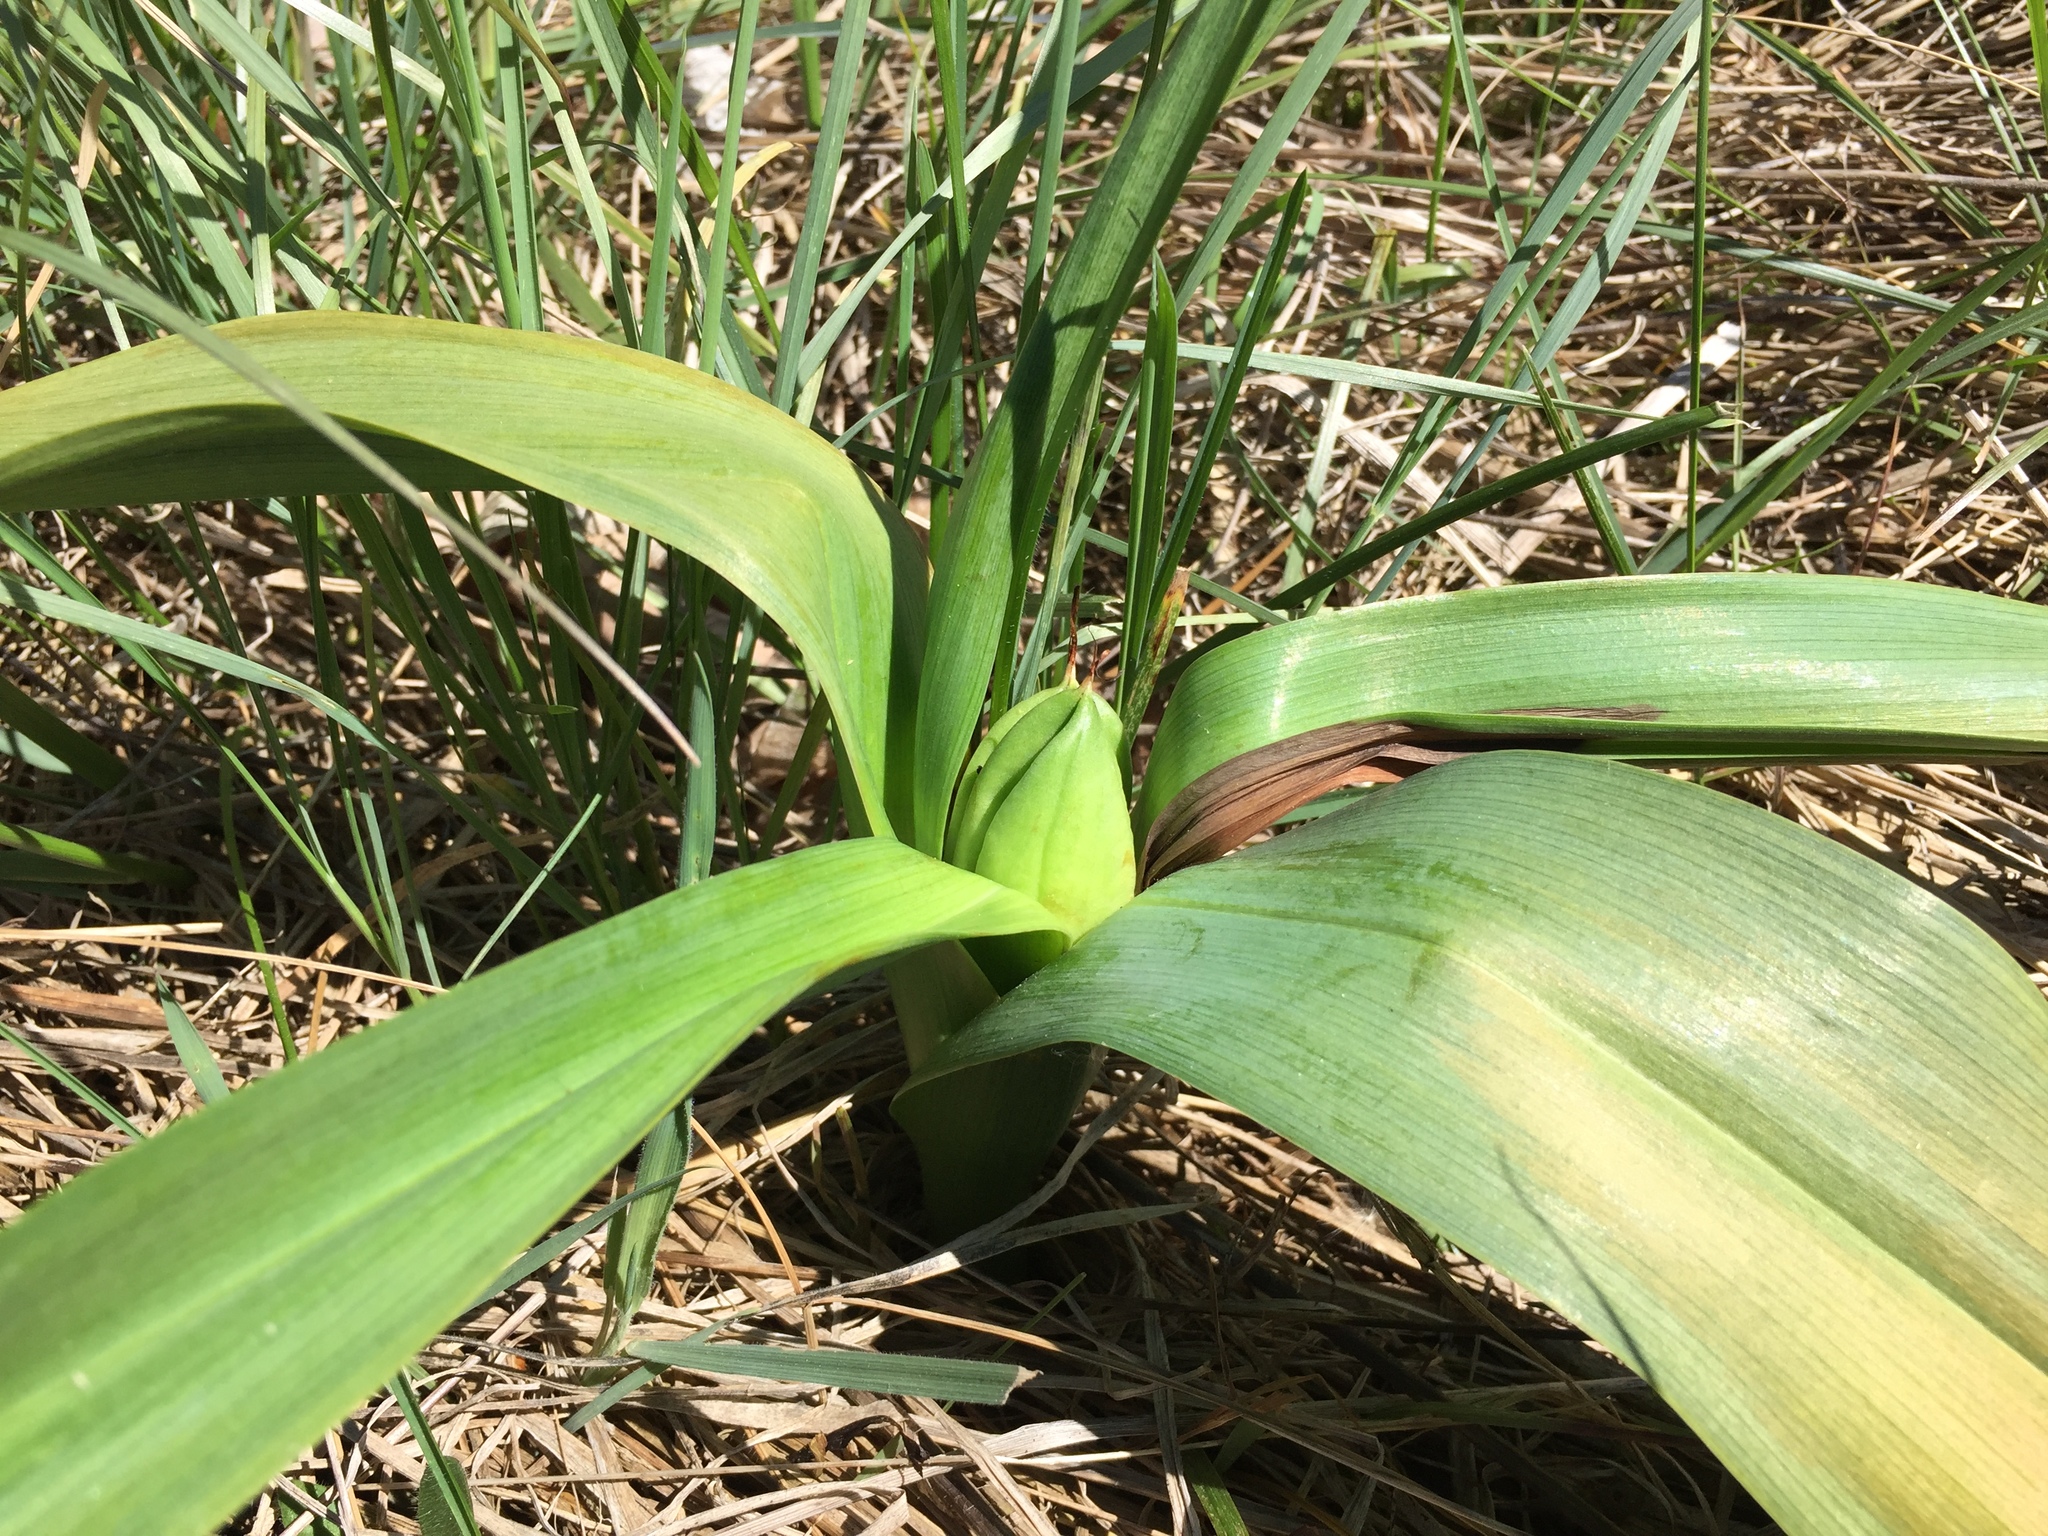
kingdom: Plantae
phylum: Tracheophyta
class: Liliopsida
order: Liliales
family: Colchicaceae
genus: Colchicum
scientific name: Colchicum autumnale
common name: Autumn crocus
